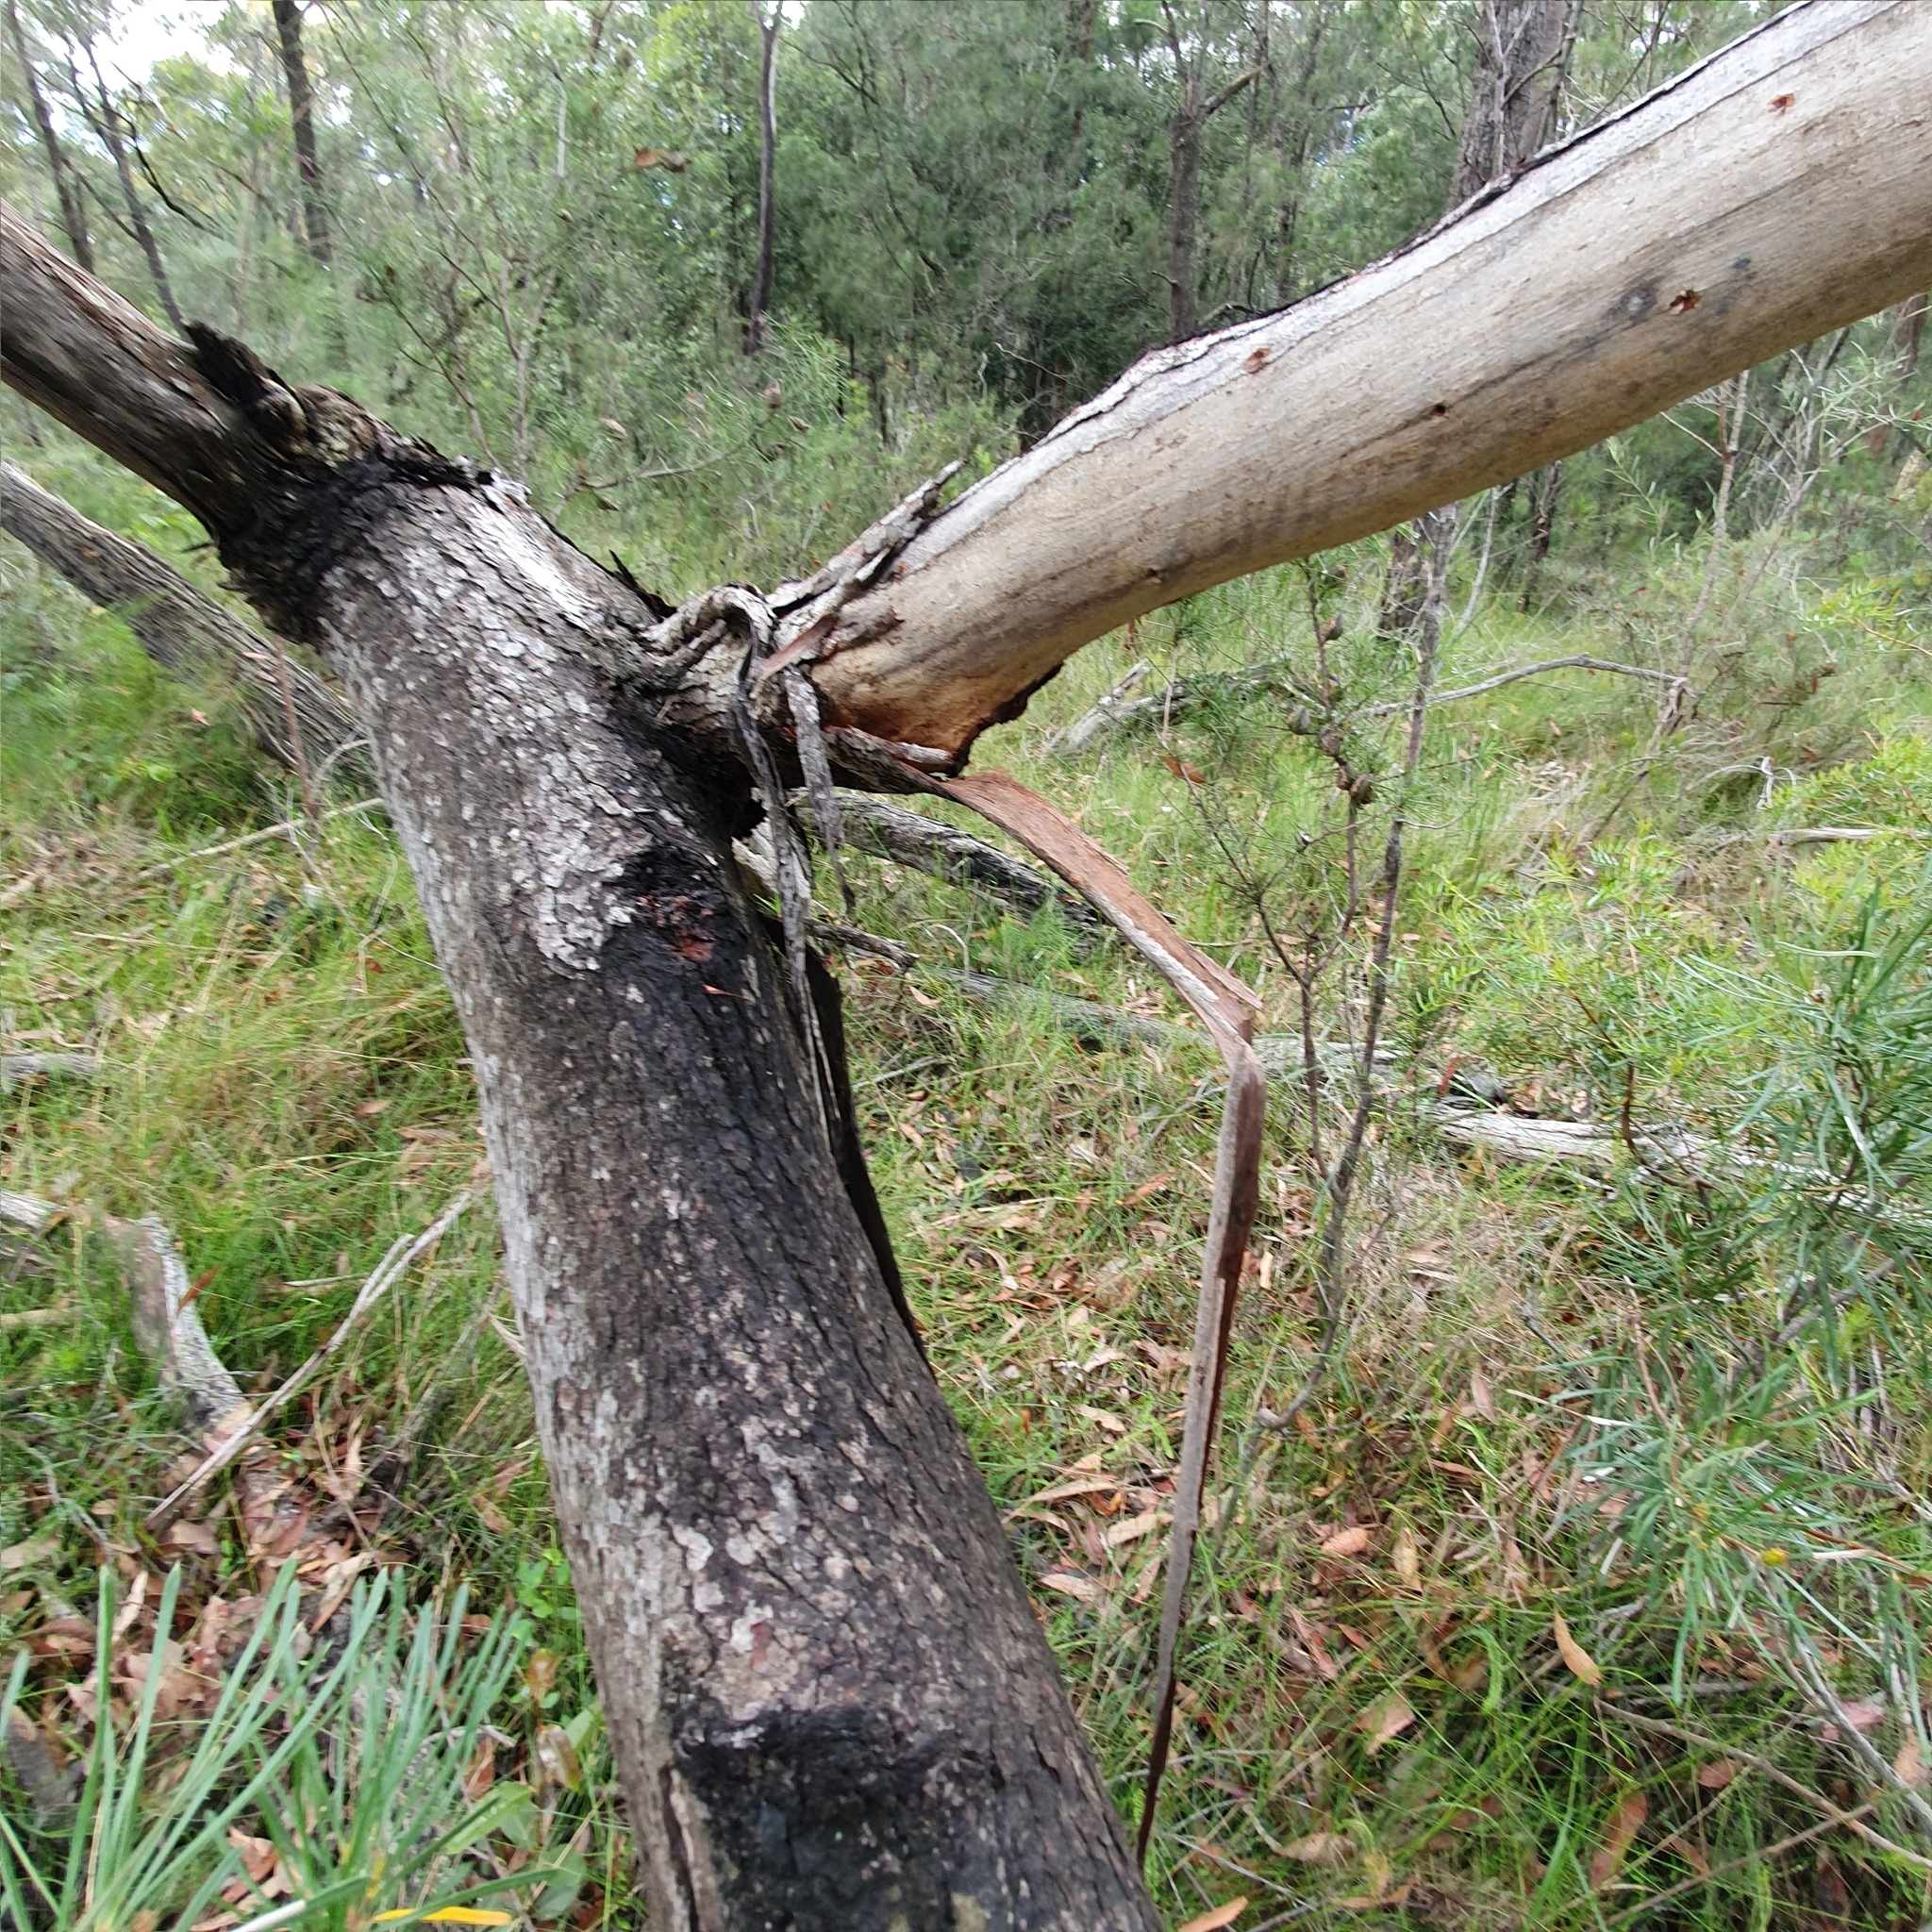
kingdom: Plantae
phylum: Tracheophyta
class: Magnoliopsida
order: Myrtales
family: Myrtaceae
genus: Eucalyptus
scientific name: Eucalyptus sieberi
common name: Black-ash
